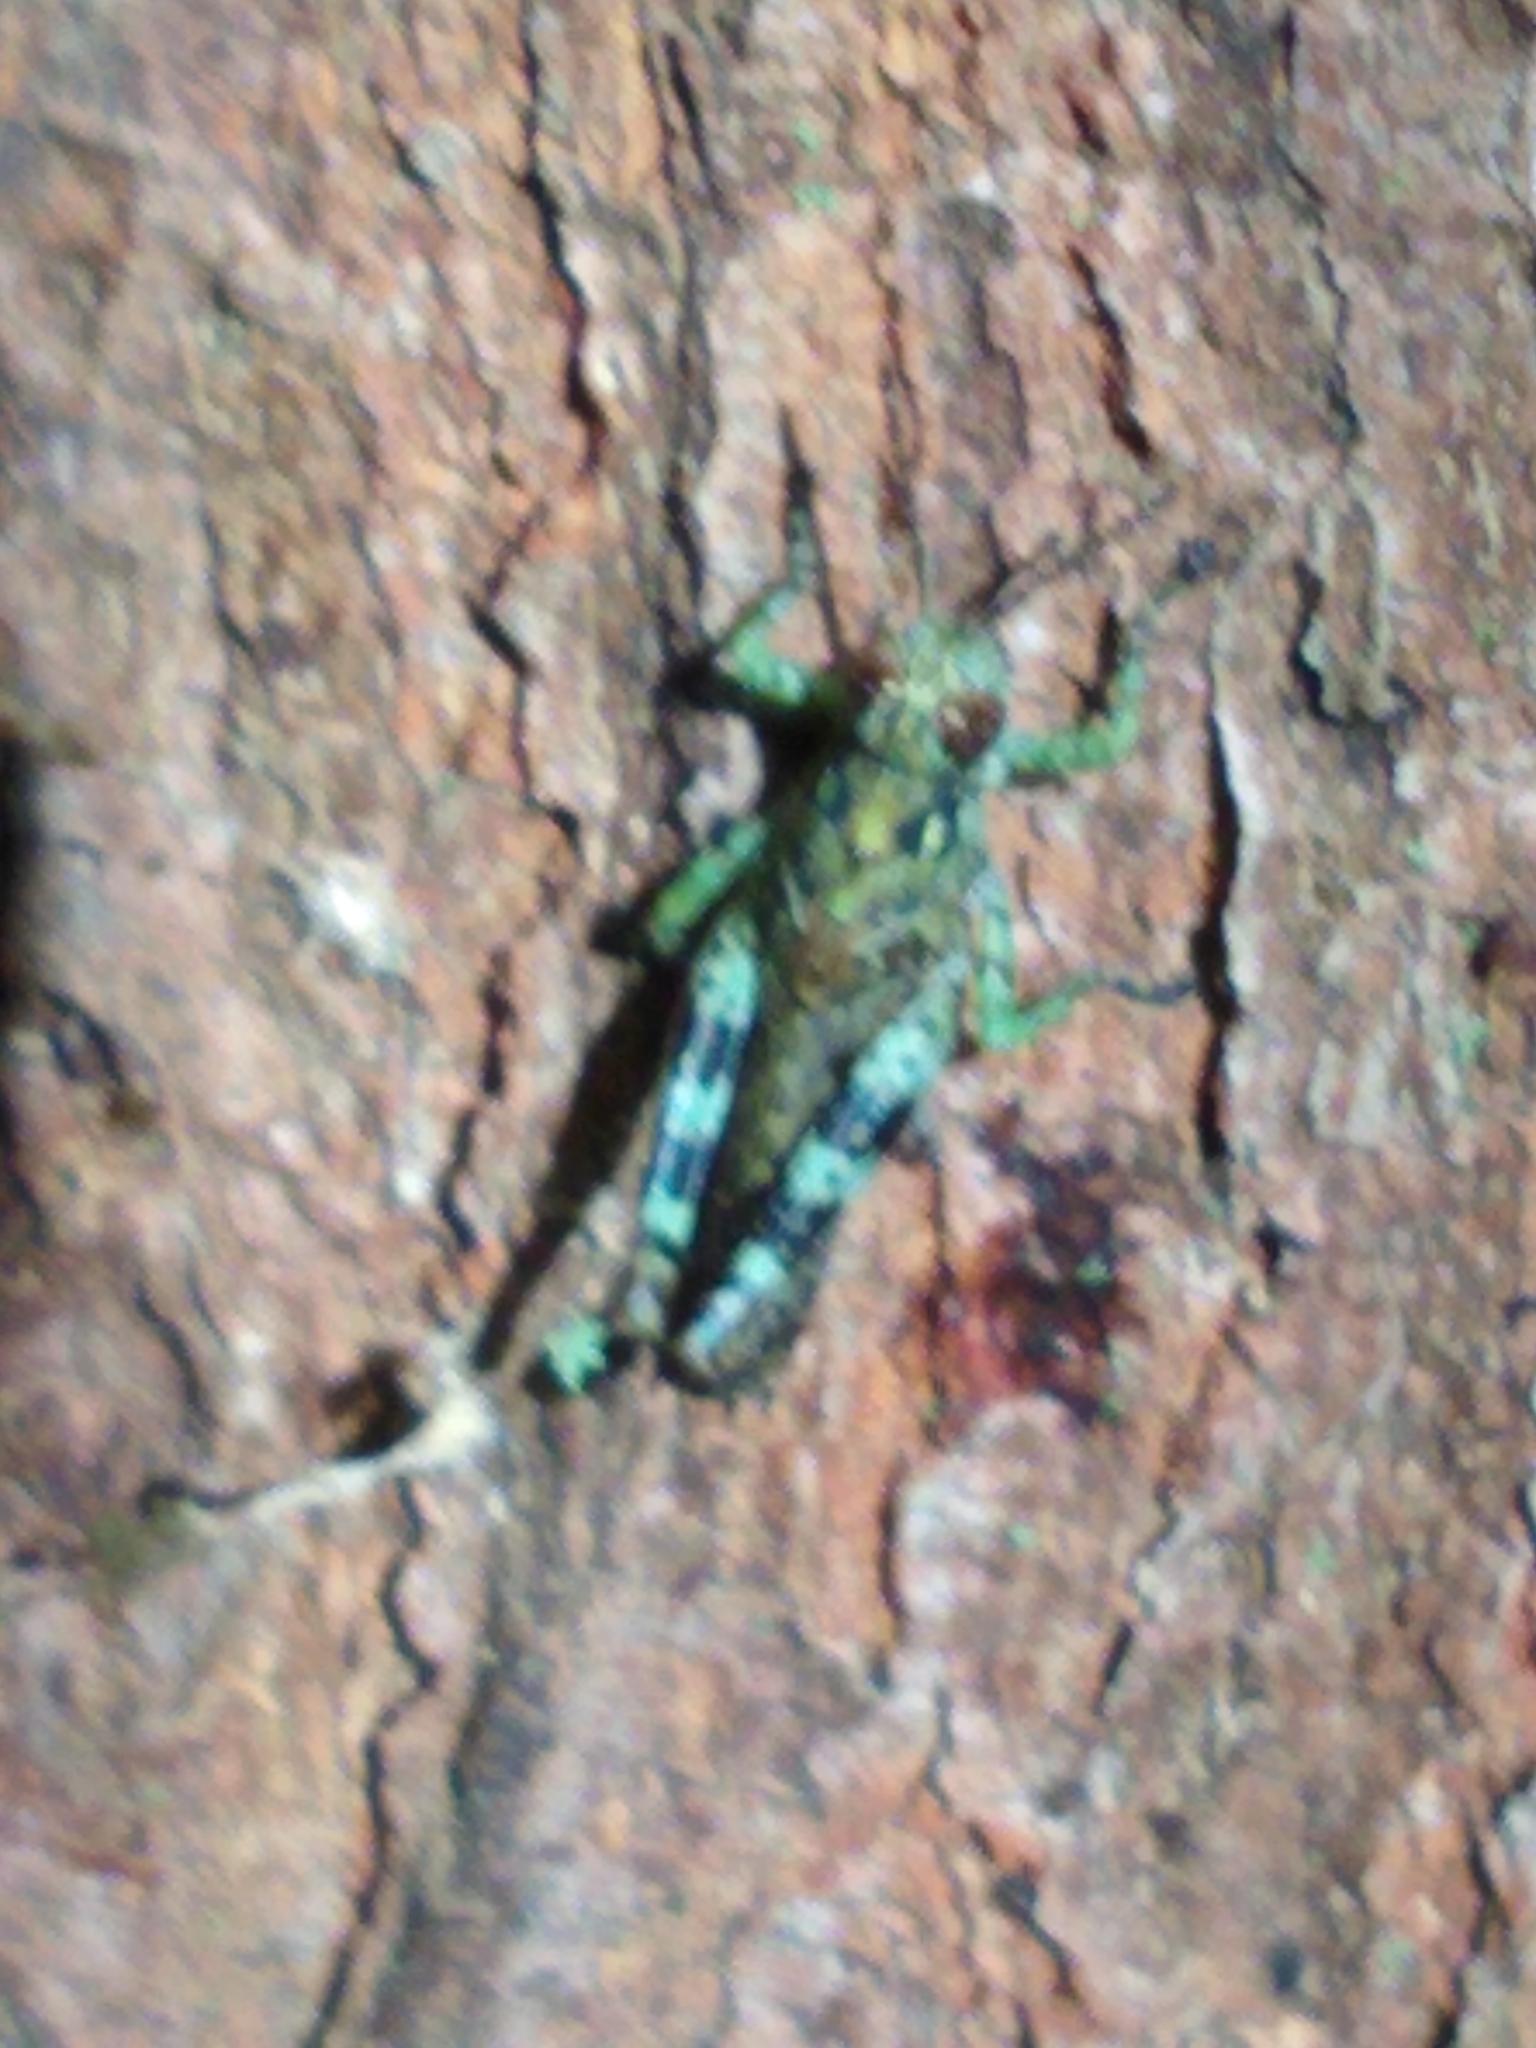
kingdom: Animalia
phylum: Arthropoda
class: Insecta
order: Orthoptera
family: Acrididae
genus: Melanoplus
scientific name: Melanoplus punctulatus
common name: Pine-tree spur-throat grasshopper
